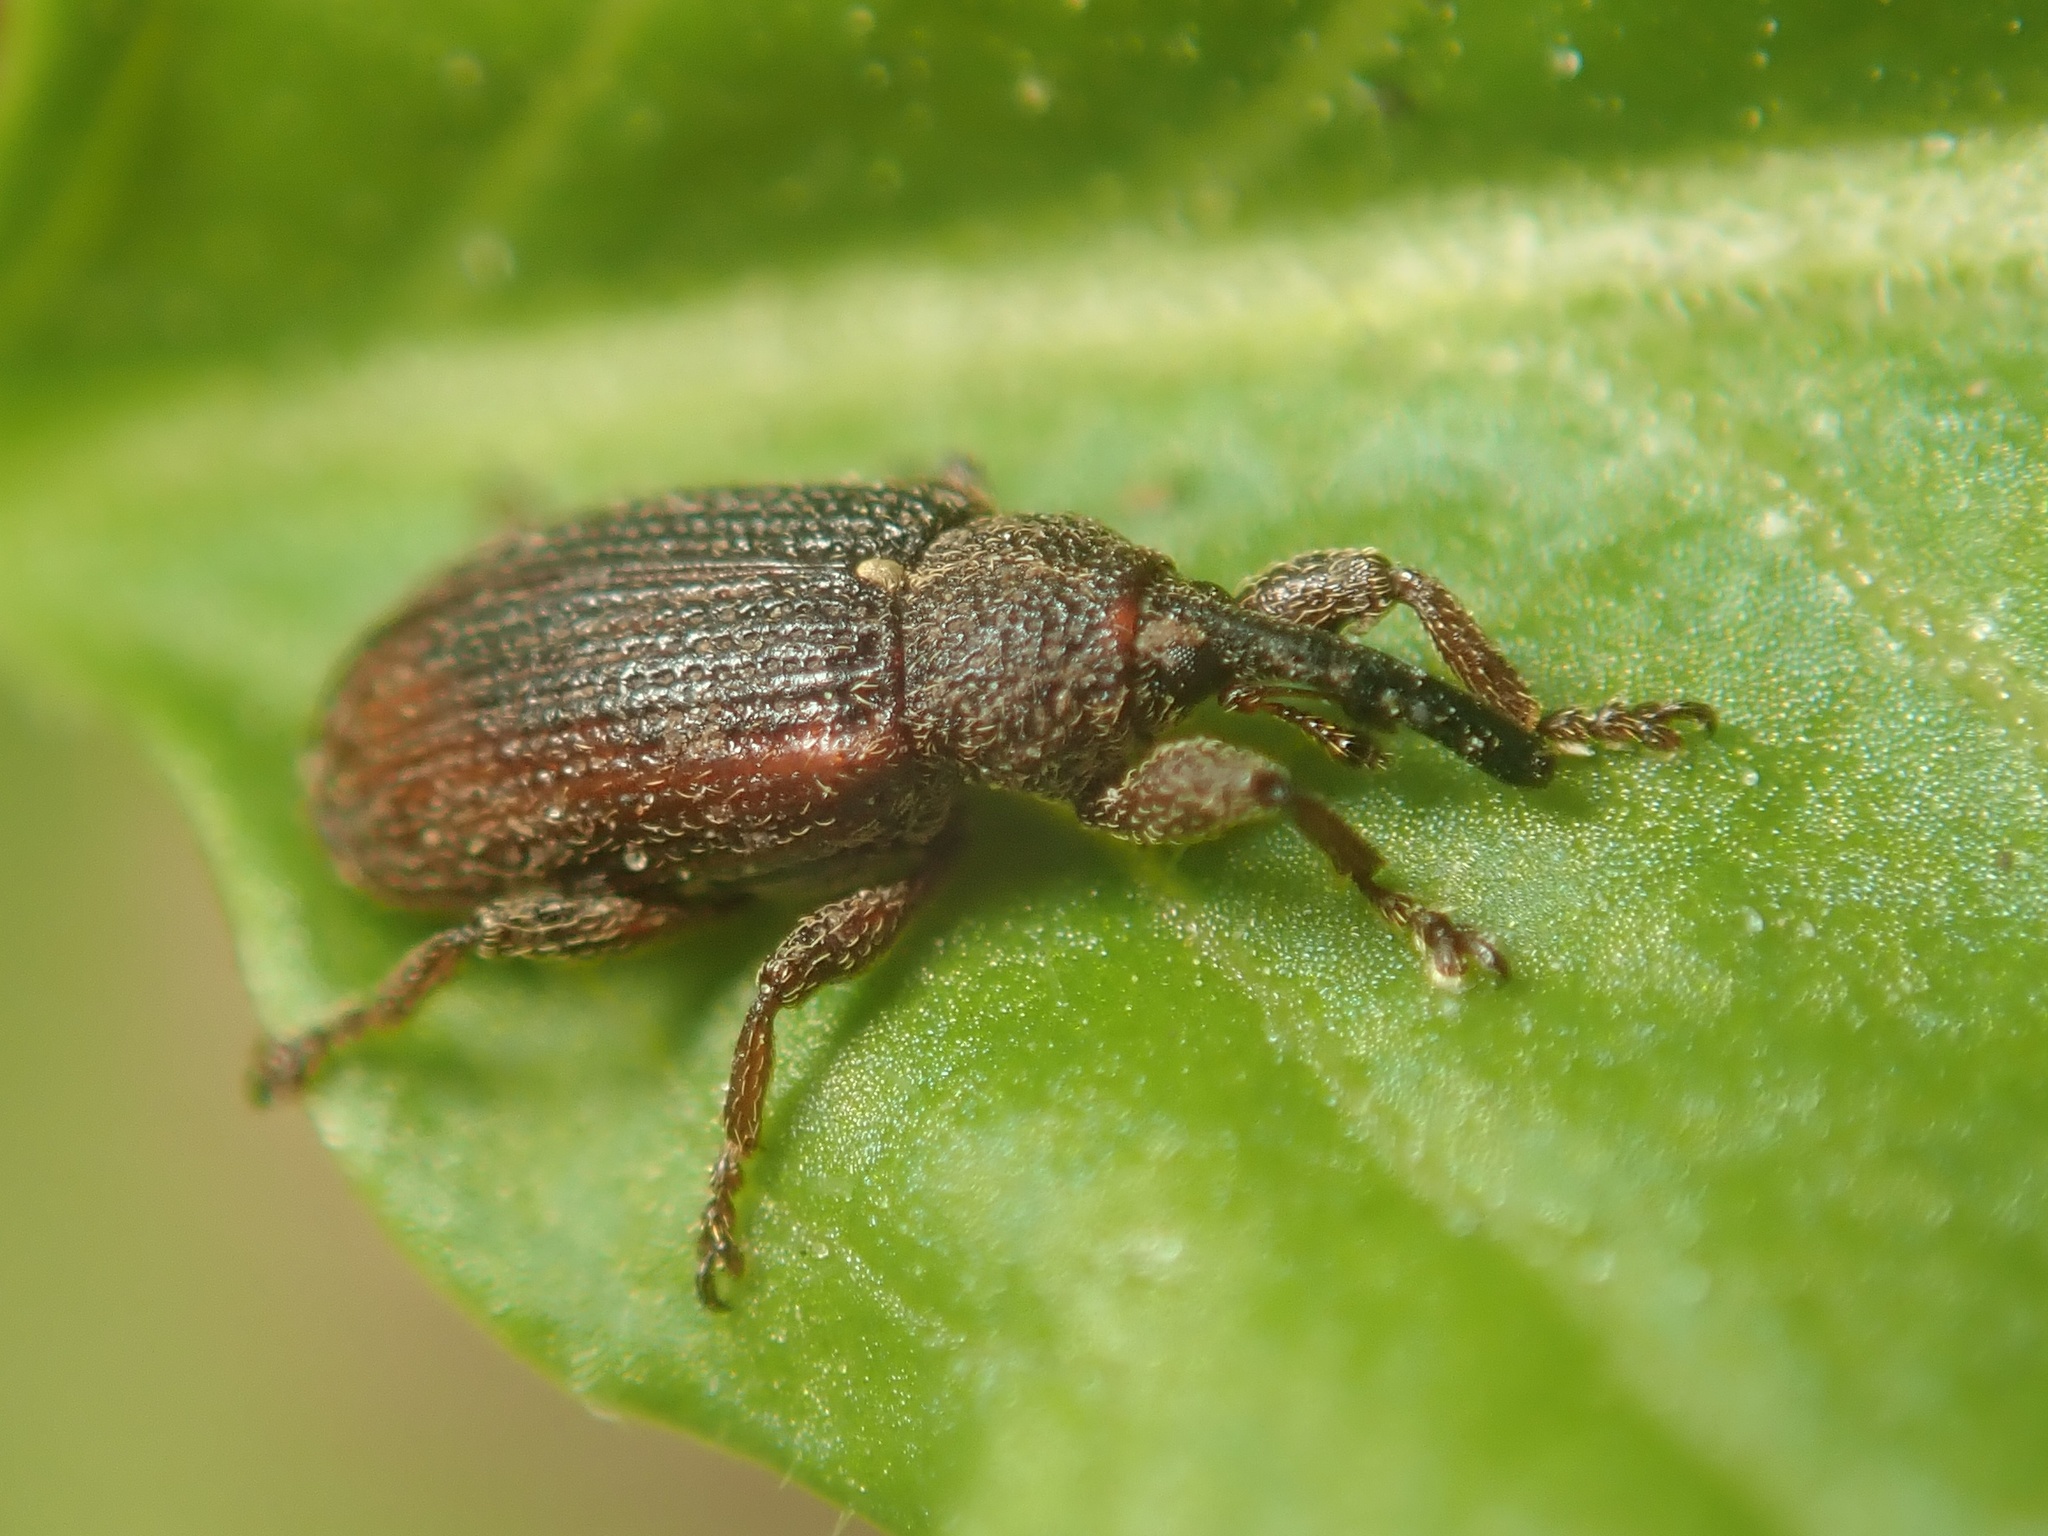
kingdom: Animalia
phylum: Arthropoda
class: Insecta
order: Coleoptera
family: Curculionidae
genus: Bradybatus
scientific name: Bradybatus kellneri
